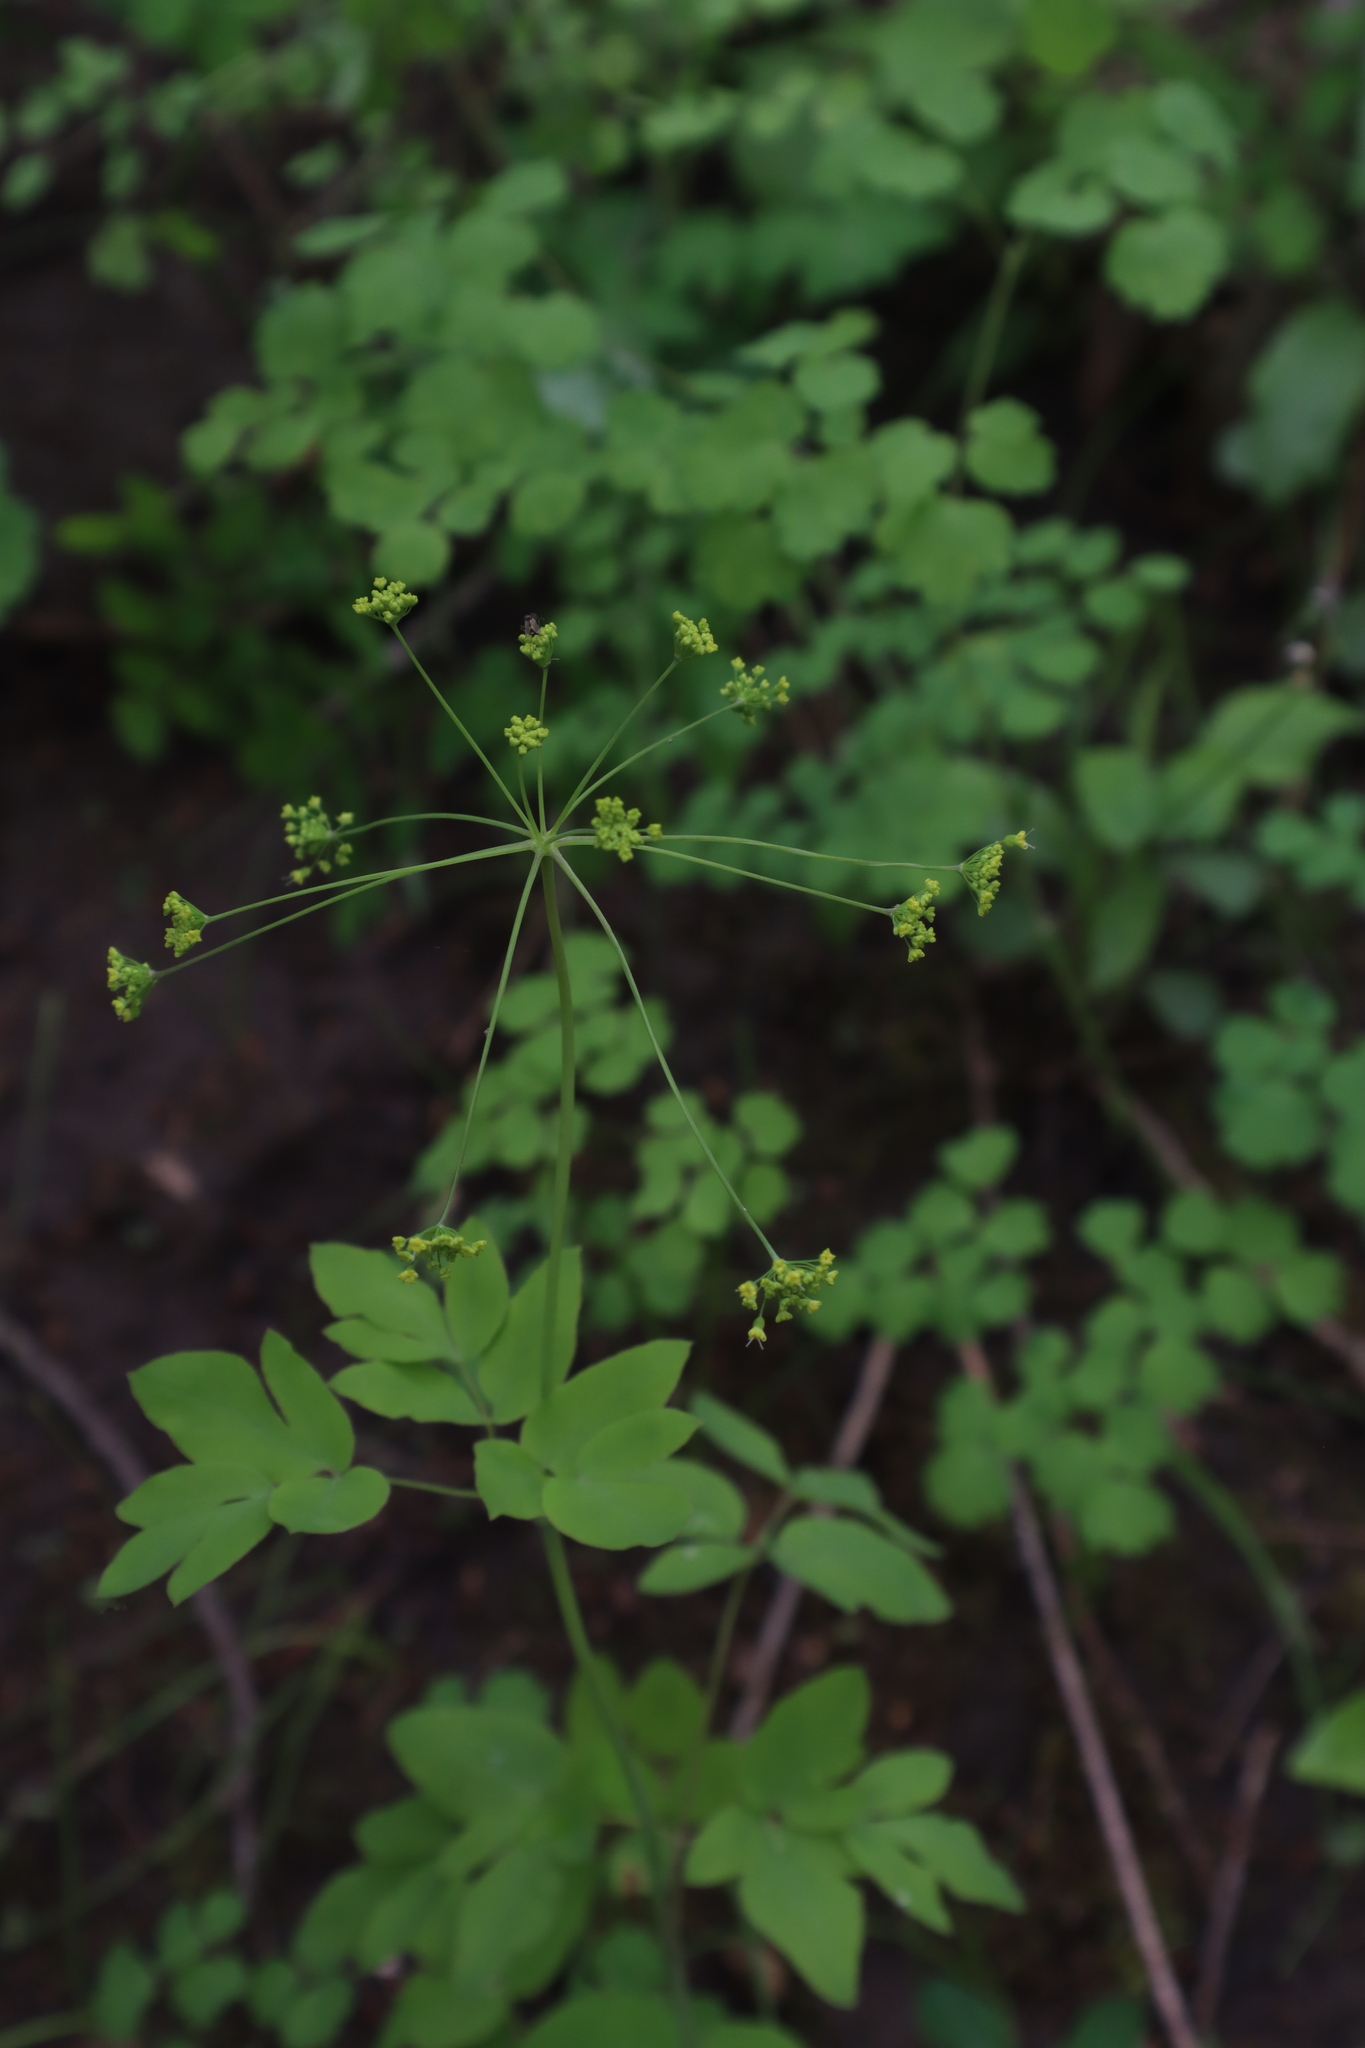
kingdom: Plantae
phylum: Tracheophyta
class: Magnoliopsida
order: Apiales
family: Apiaceae
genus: Taenidia
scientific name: Taenidia integerrima
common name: Golden alexander
